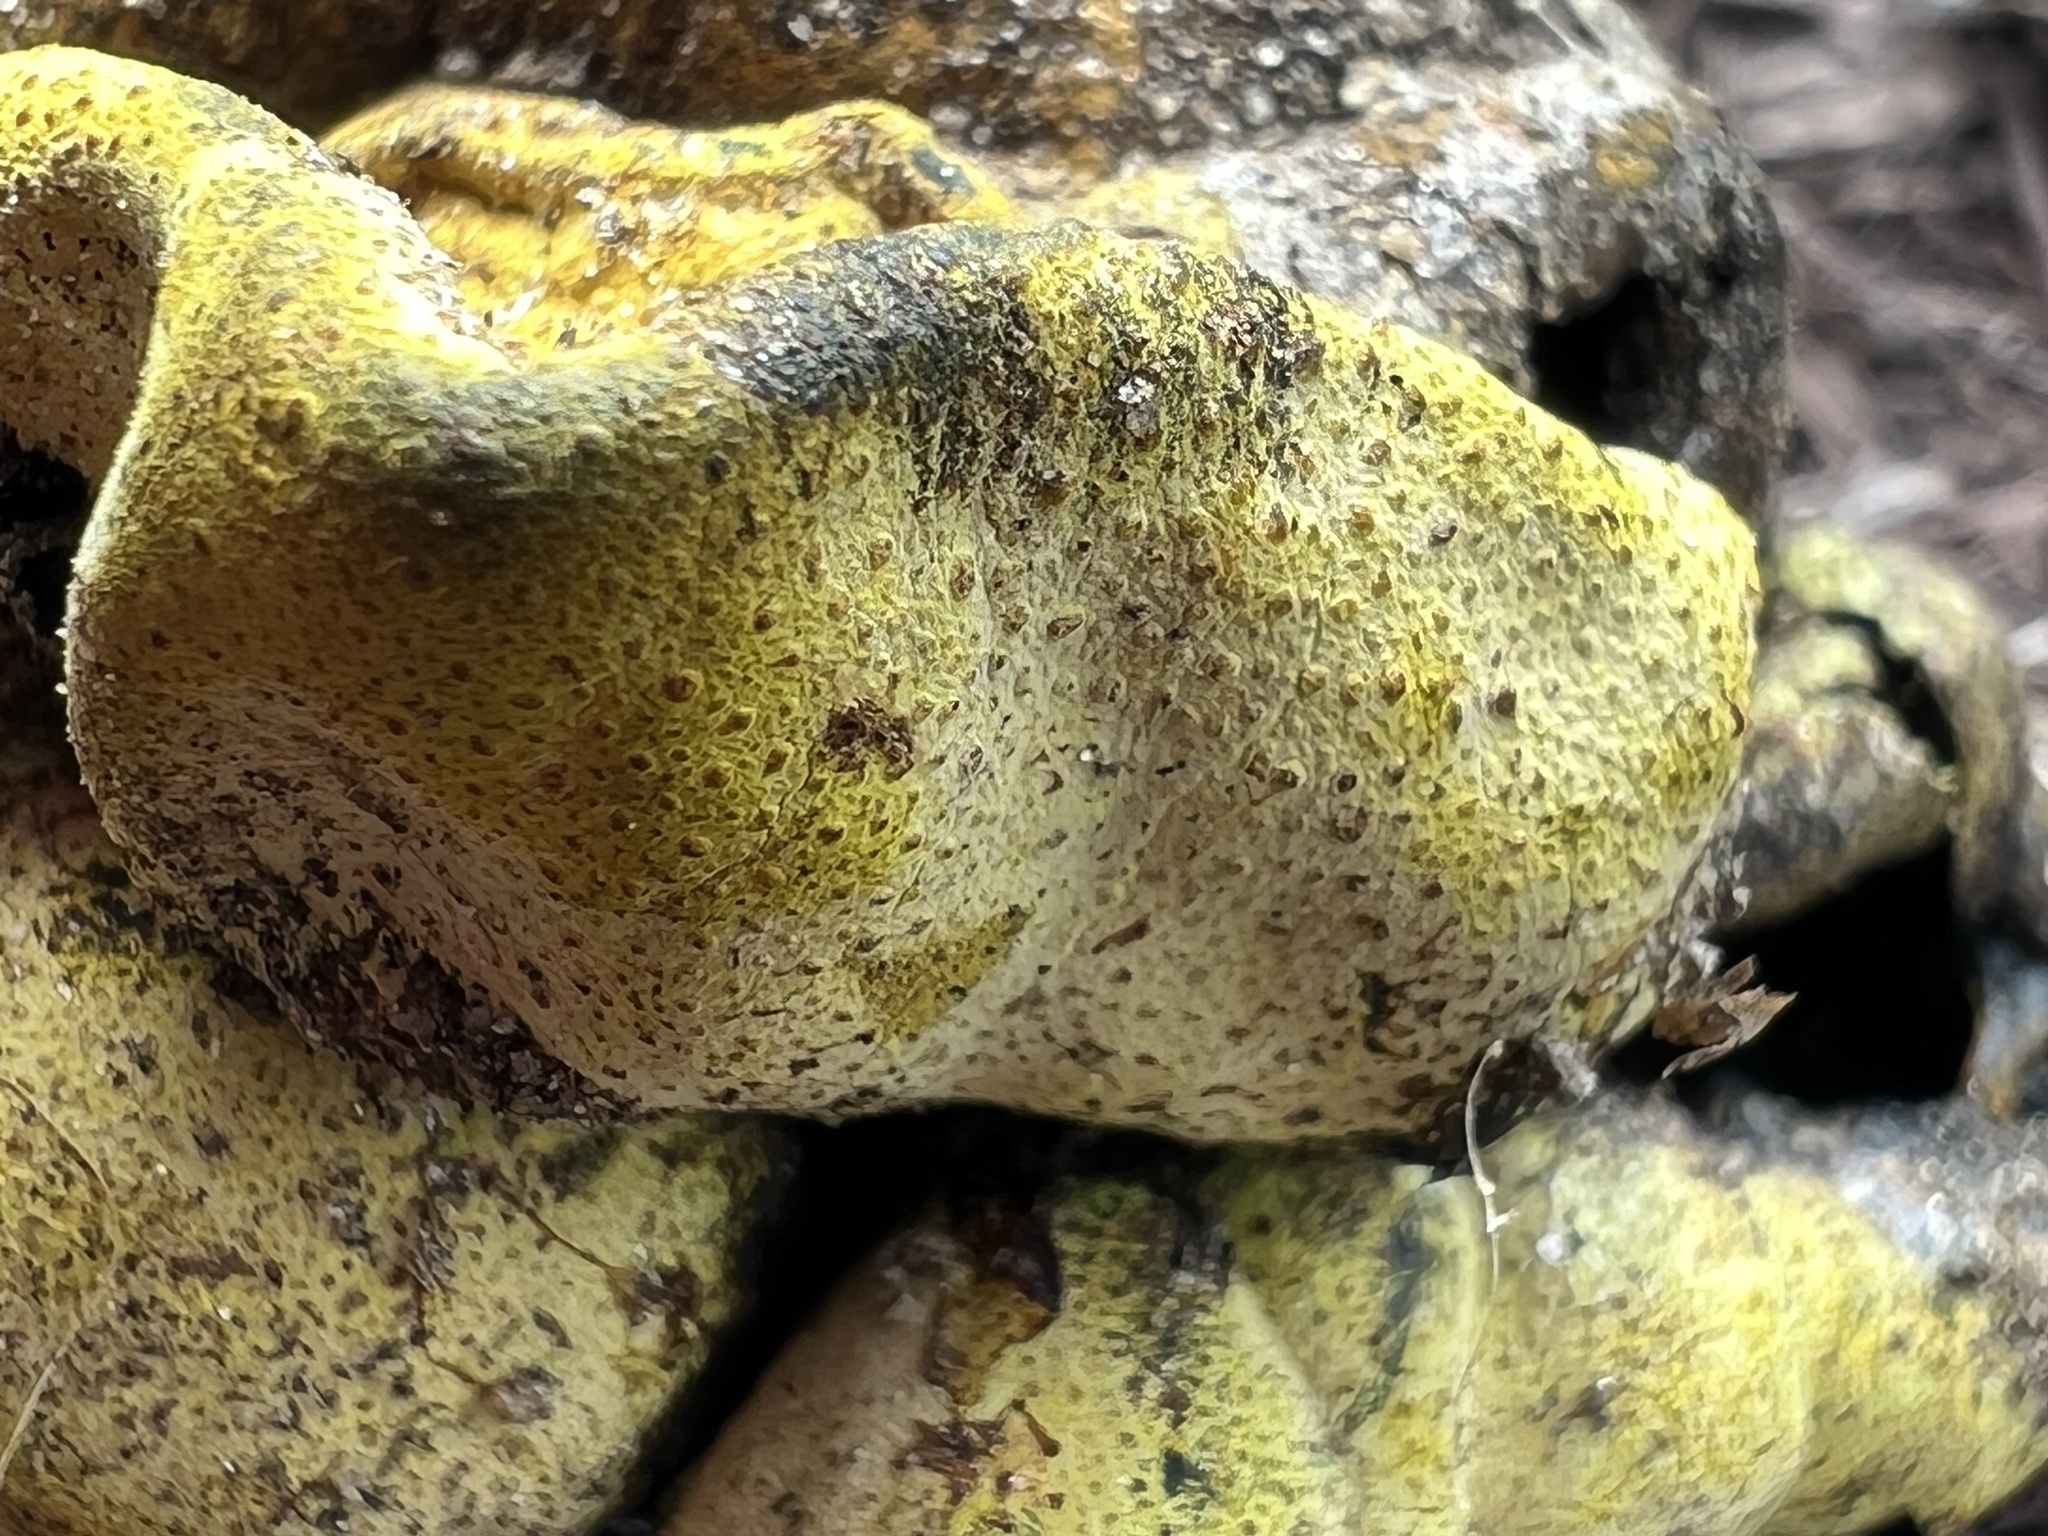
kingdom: Fungi
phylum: Ascomycota
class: Sordariomycetes
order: Xylariales
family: Hypoxylaceae
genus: Entonaema
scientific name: Entonaema liquescens
